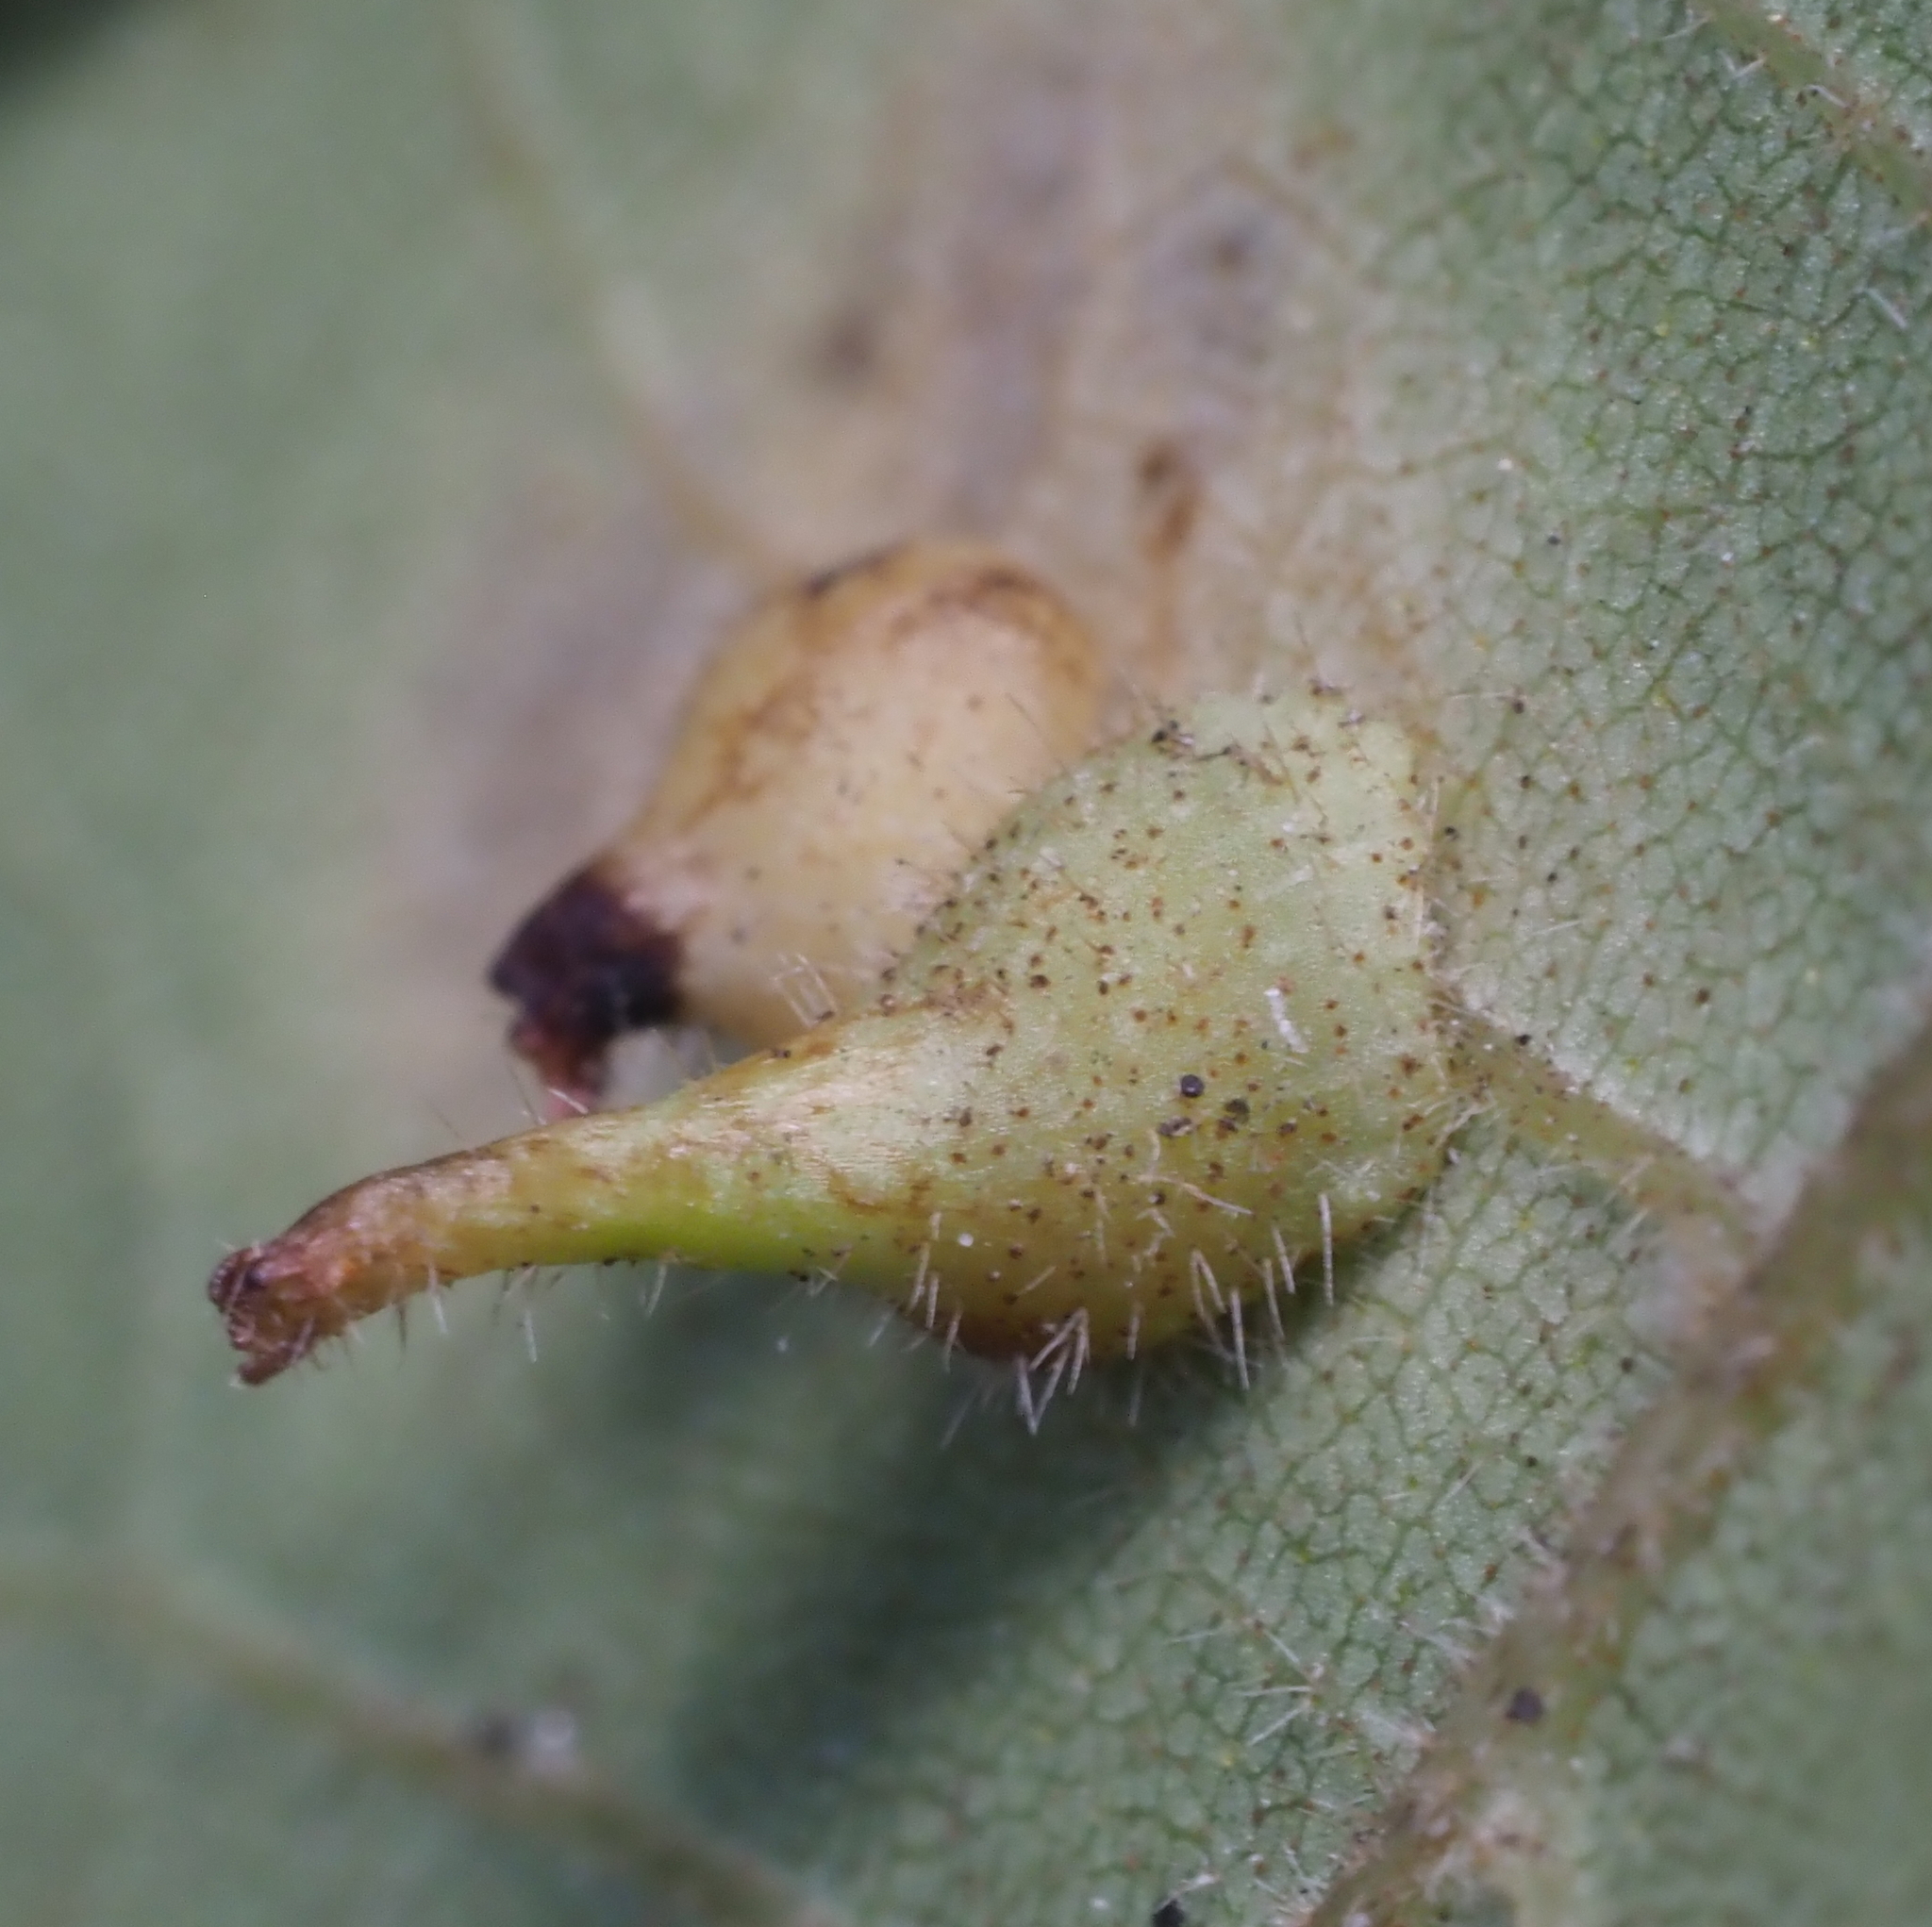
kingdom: Animalia
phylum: Arthropoda
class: Insecta
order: Diptera
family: Cecidomyiidae
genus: Caryomyia
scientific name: Caryomyia inclinata
